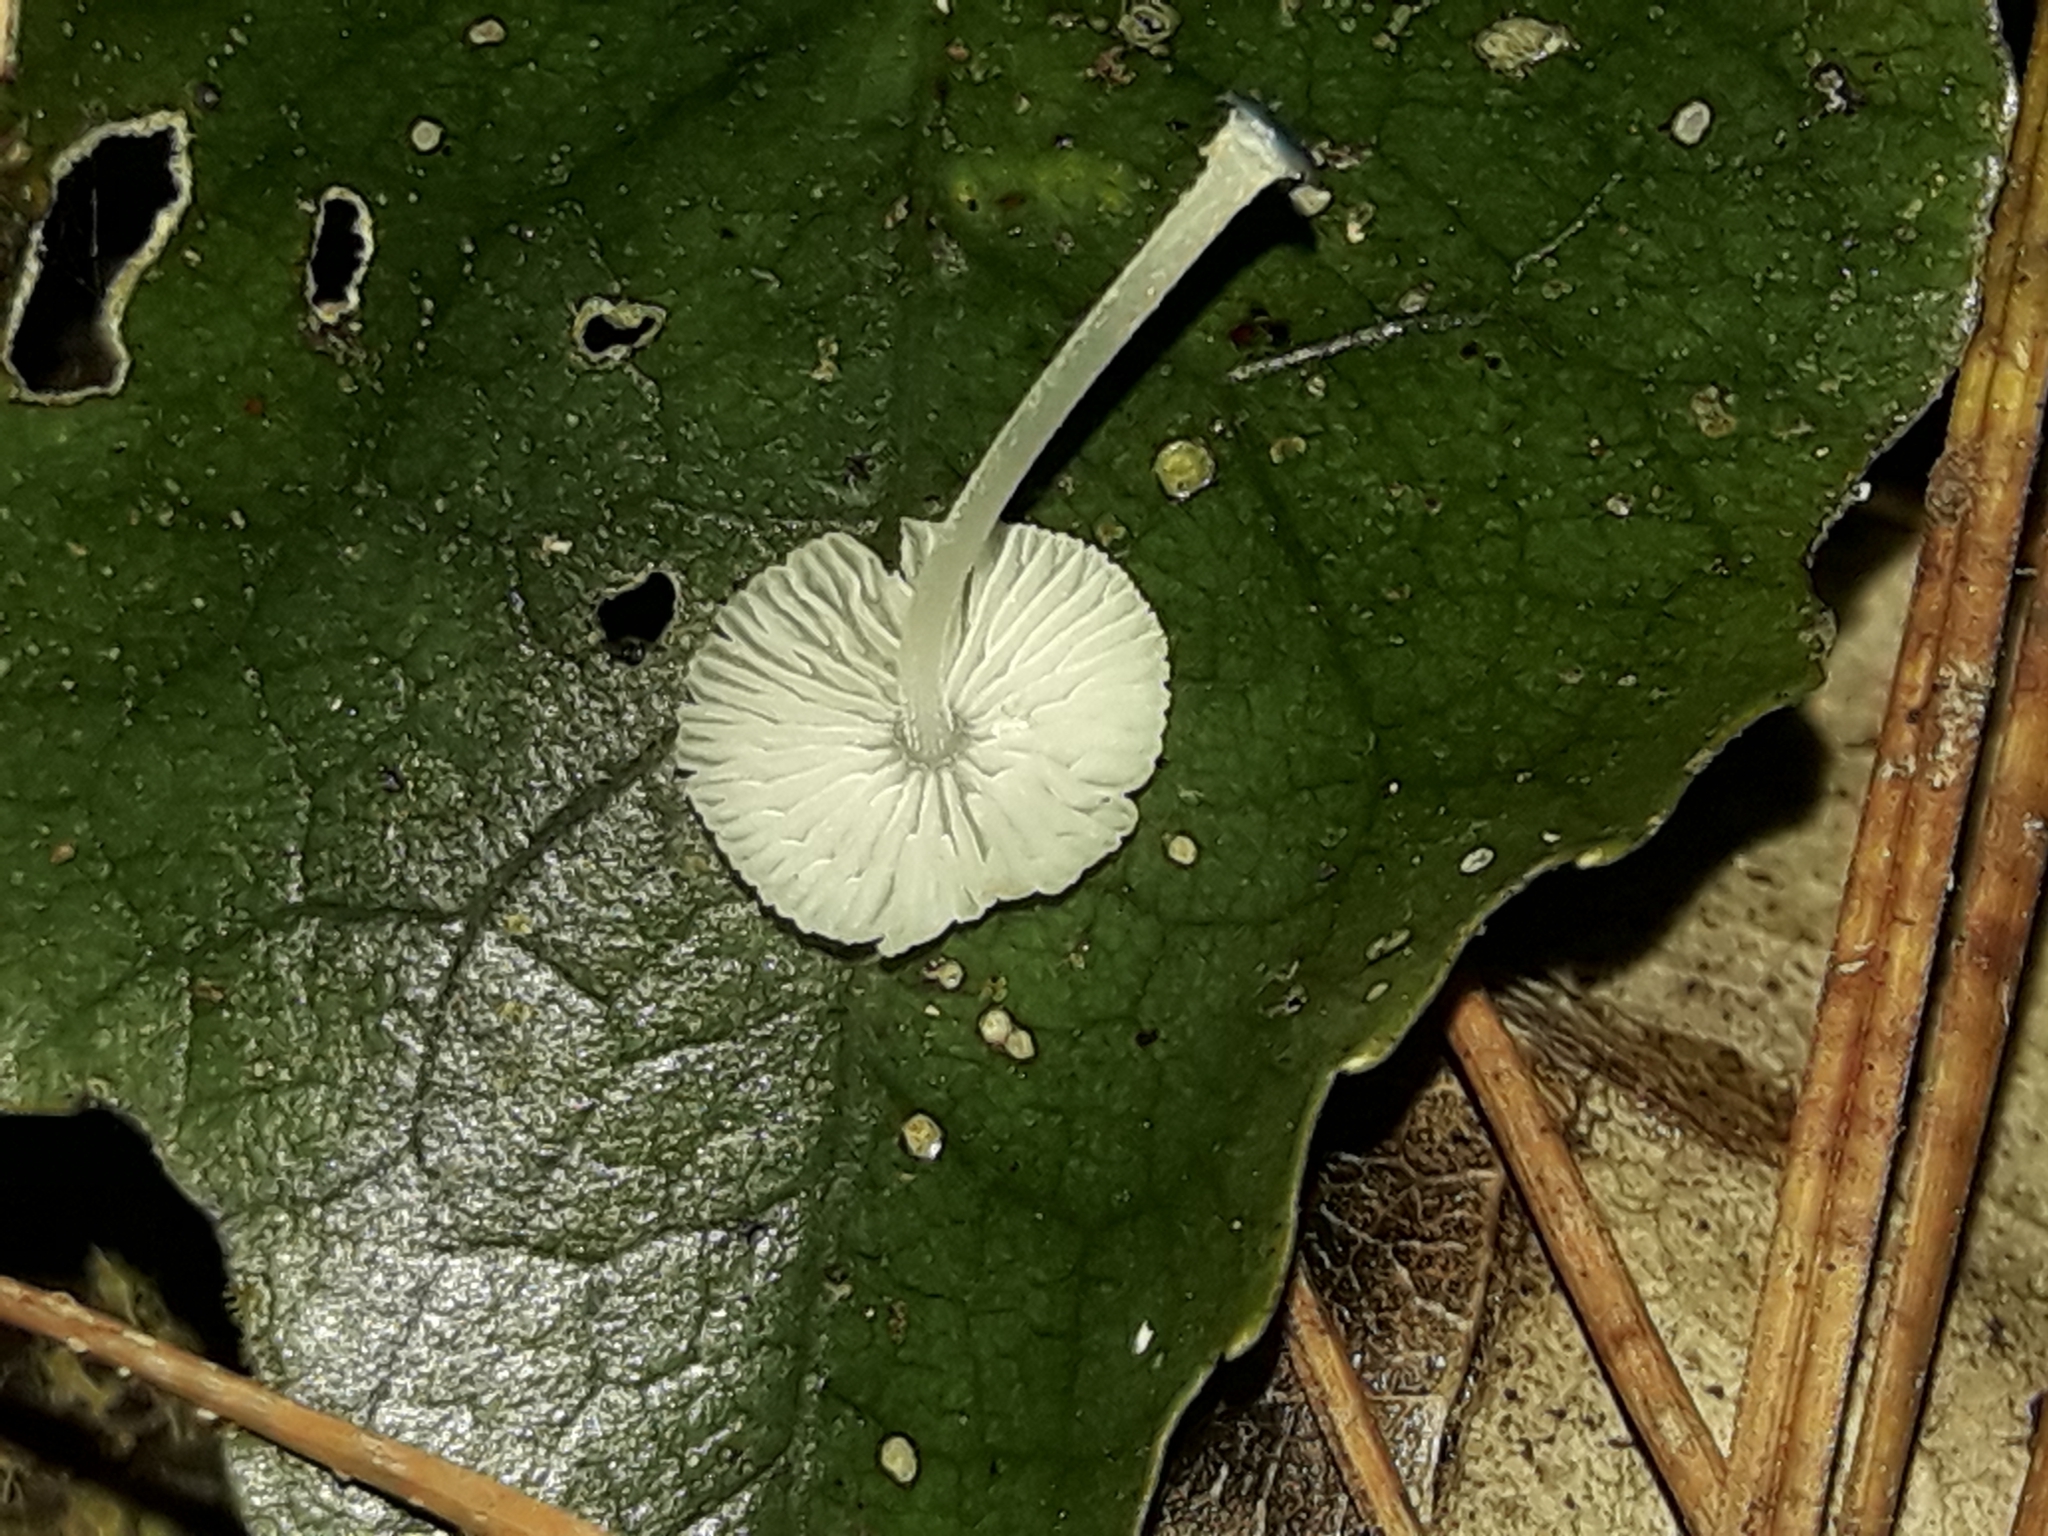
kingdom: Fungi
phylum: Basidiomycota
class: Agaricomycetes
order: Agaricales
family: Mycenaceae
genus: Mycena
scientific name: Mycena interrupta
